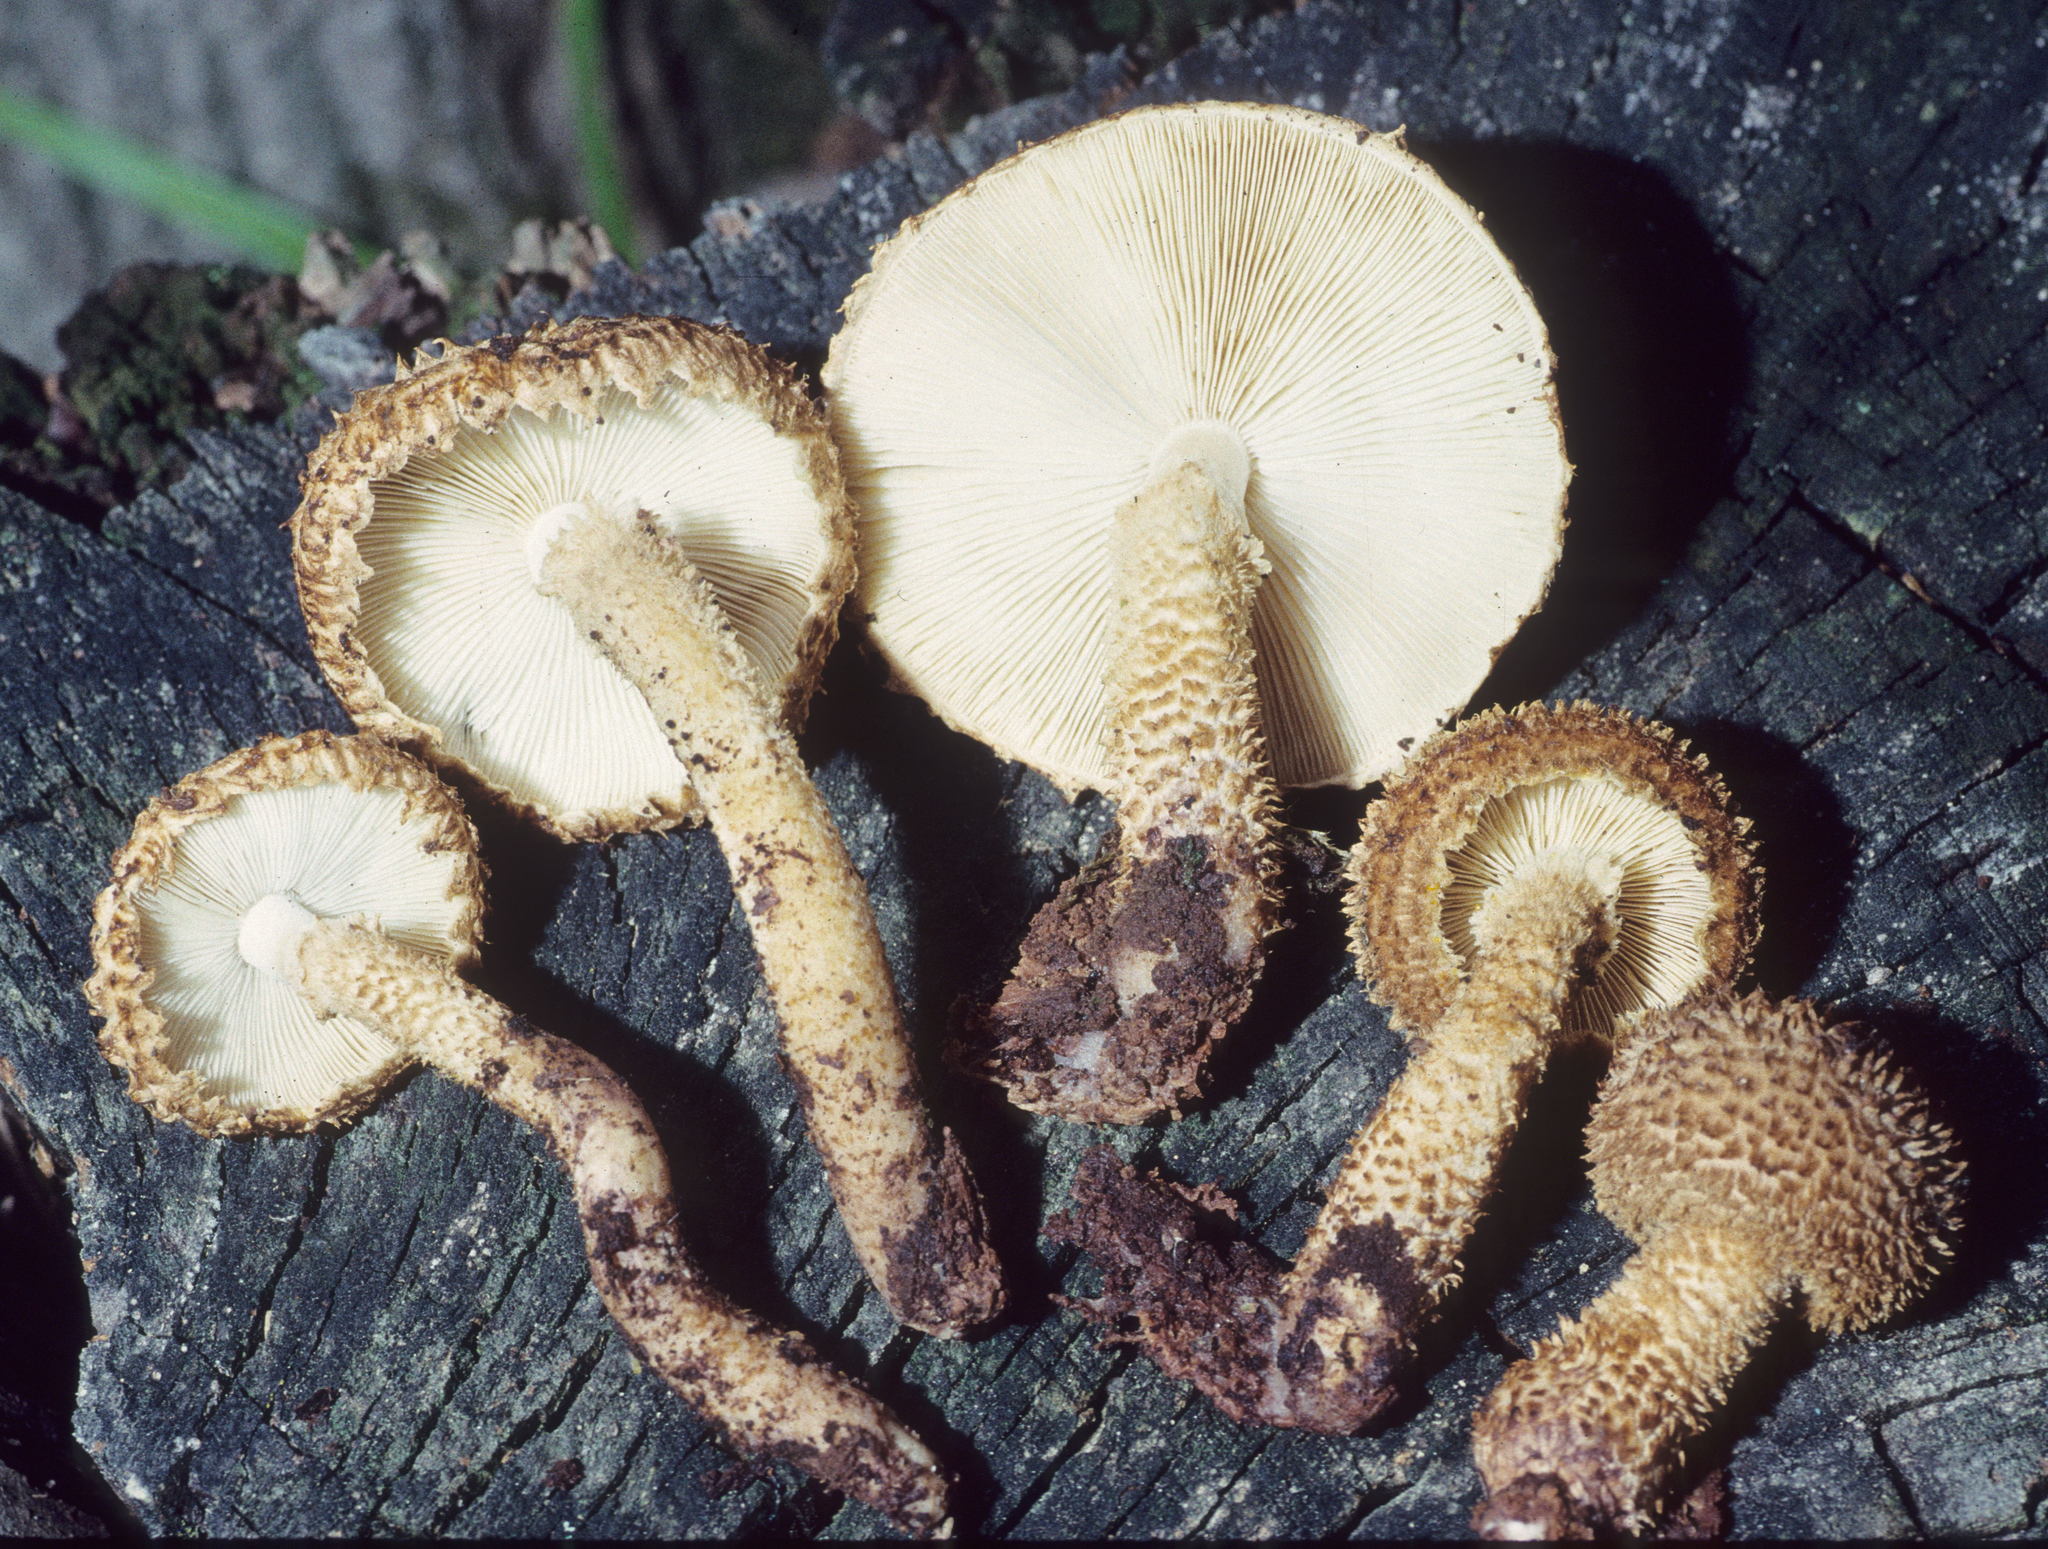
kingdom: Fungi
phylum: Basidiomycota
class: Agaricomycetes
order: Agaricales
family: Agaricaceae
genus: Leucopholiota
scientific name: Leucopholiota decorosa
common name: Decorated pholiota
